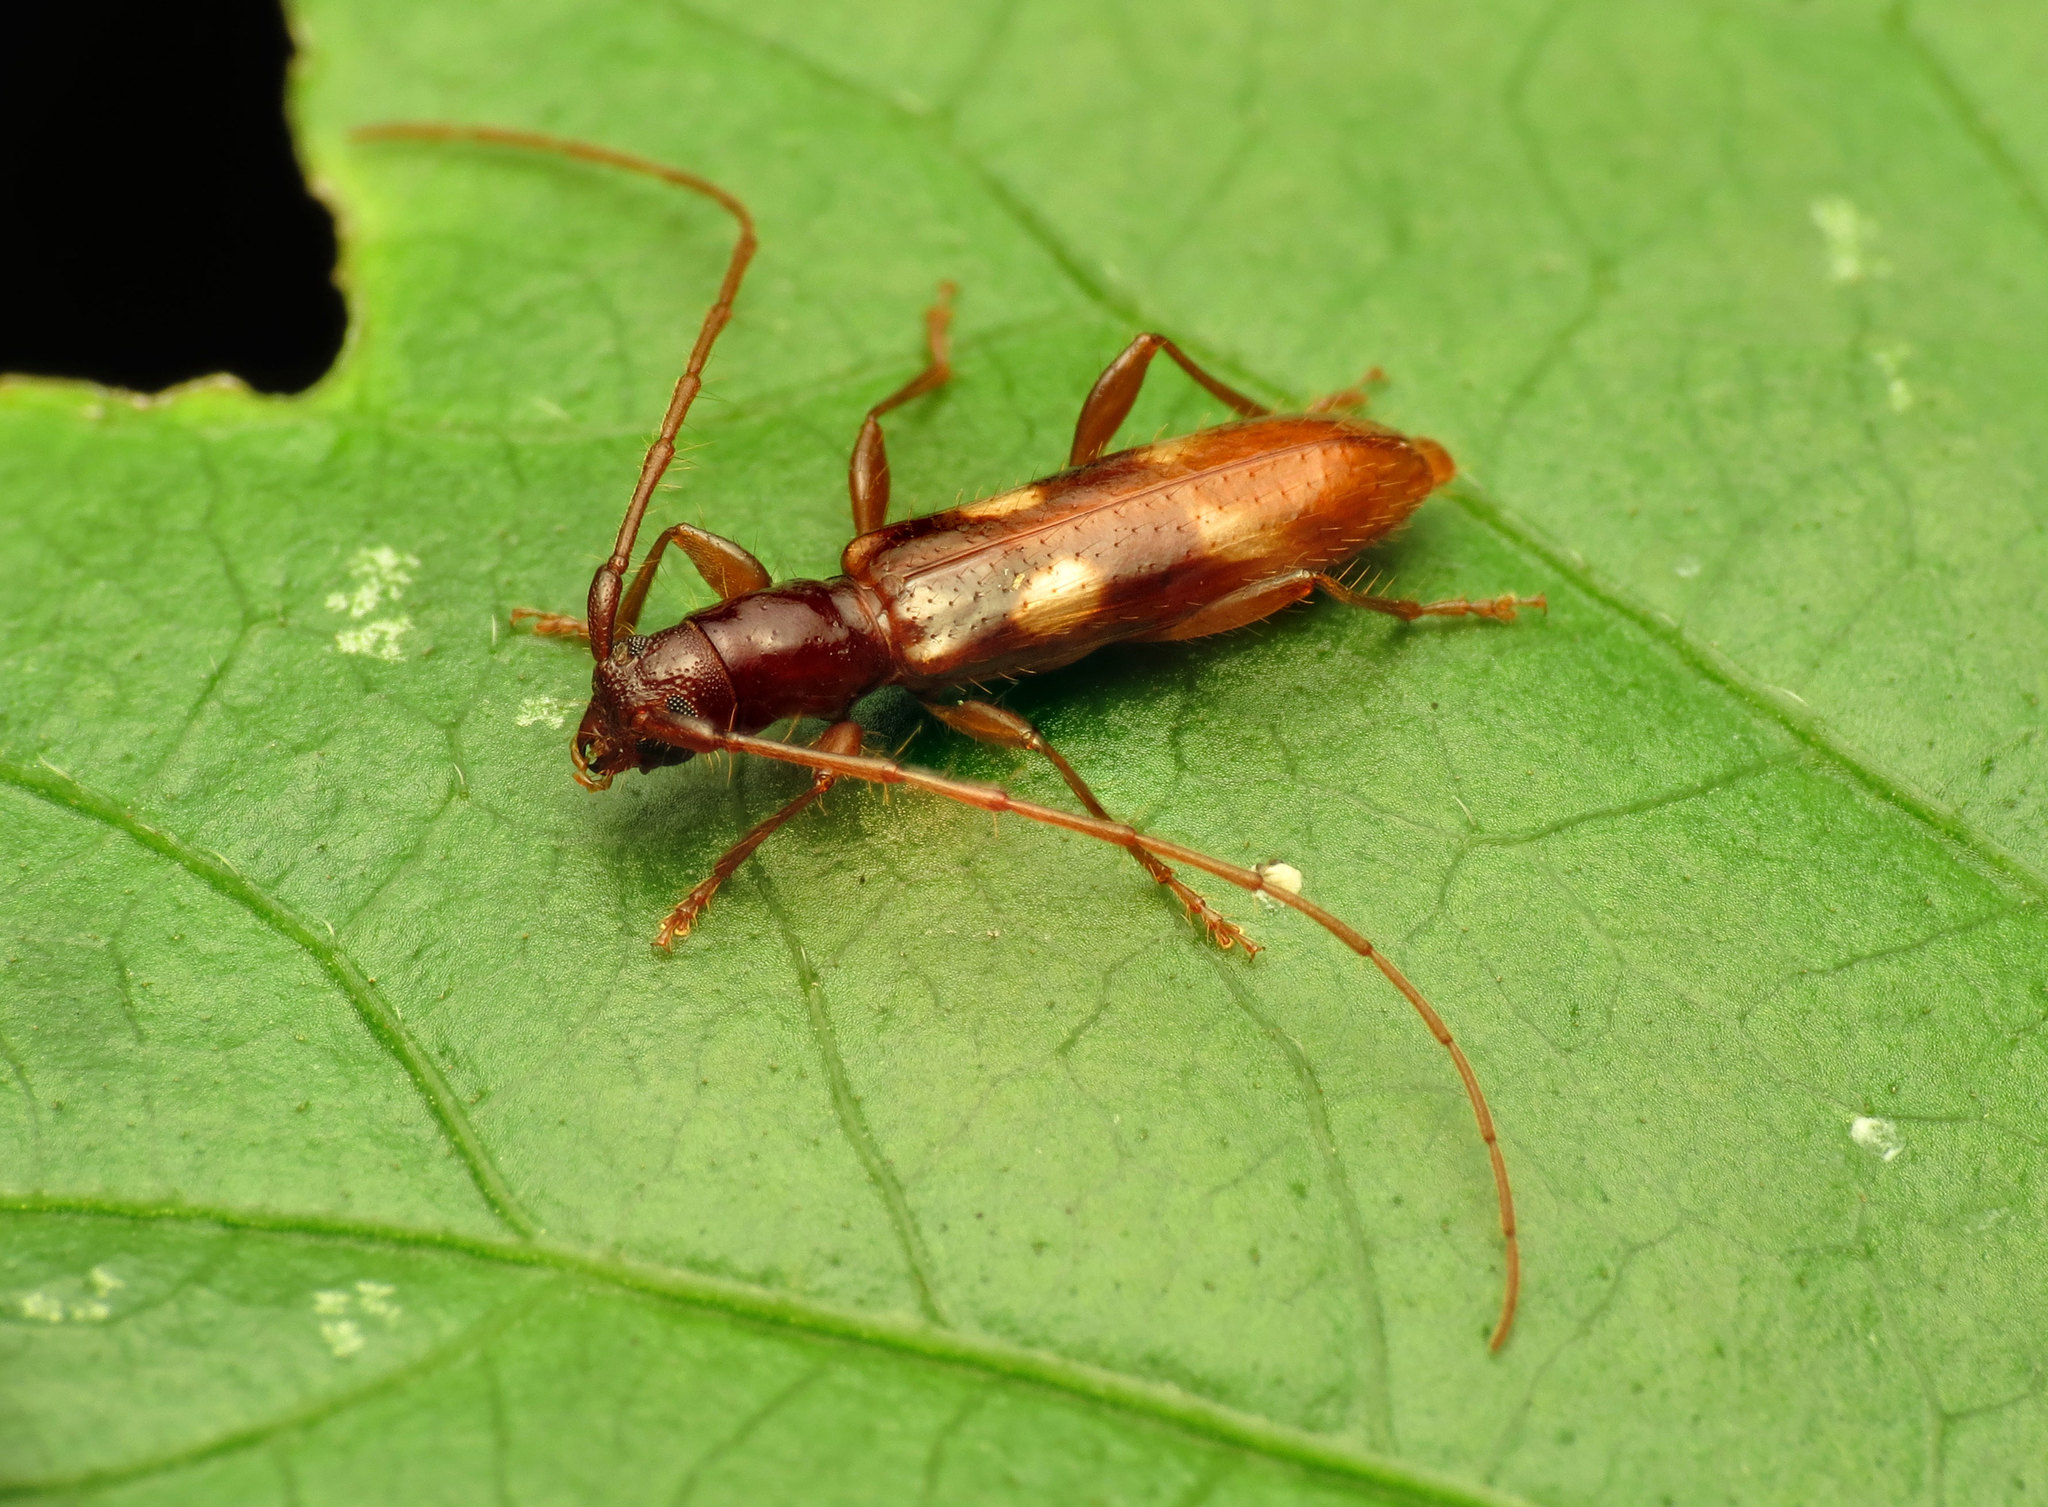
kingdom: Animalia
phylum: Arthropoda
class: Insecta
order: Coleoptera
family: Cerambycidae
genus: Heterachthes
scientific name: Heterachthes quadrimaculatus
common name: Four-spotted hickory borer
